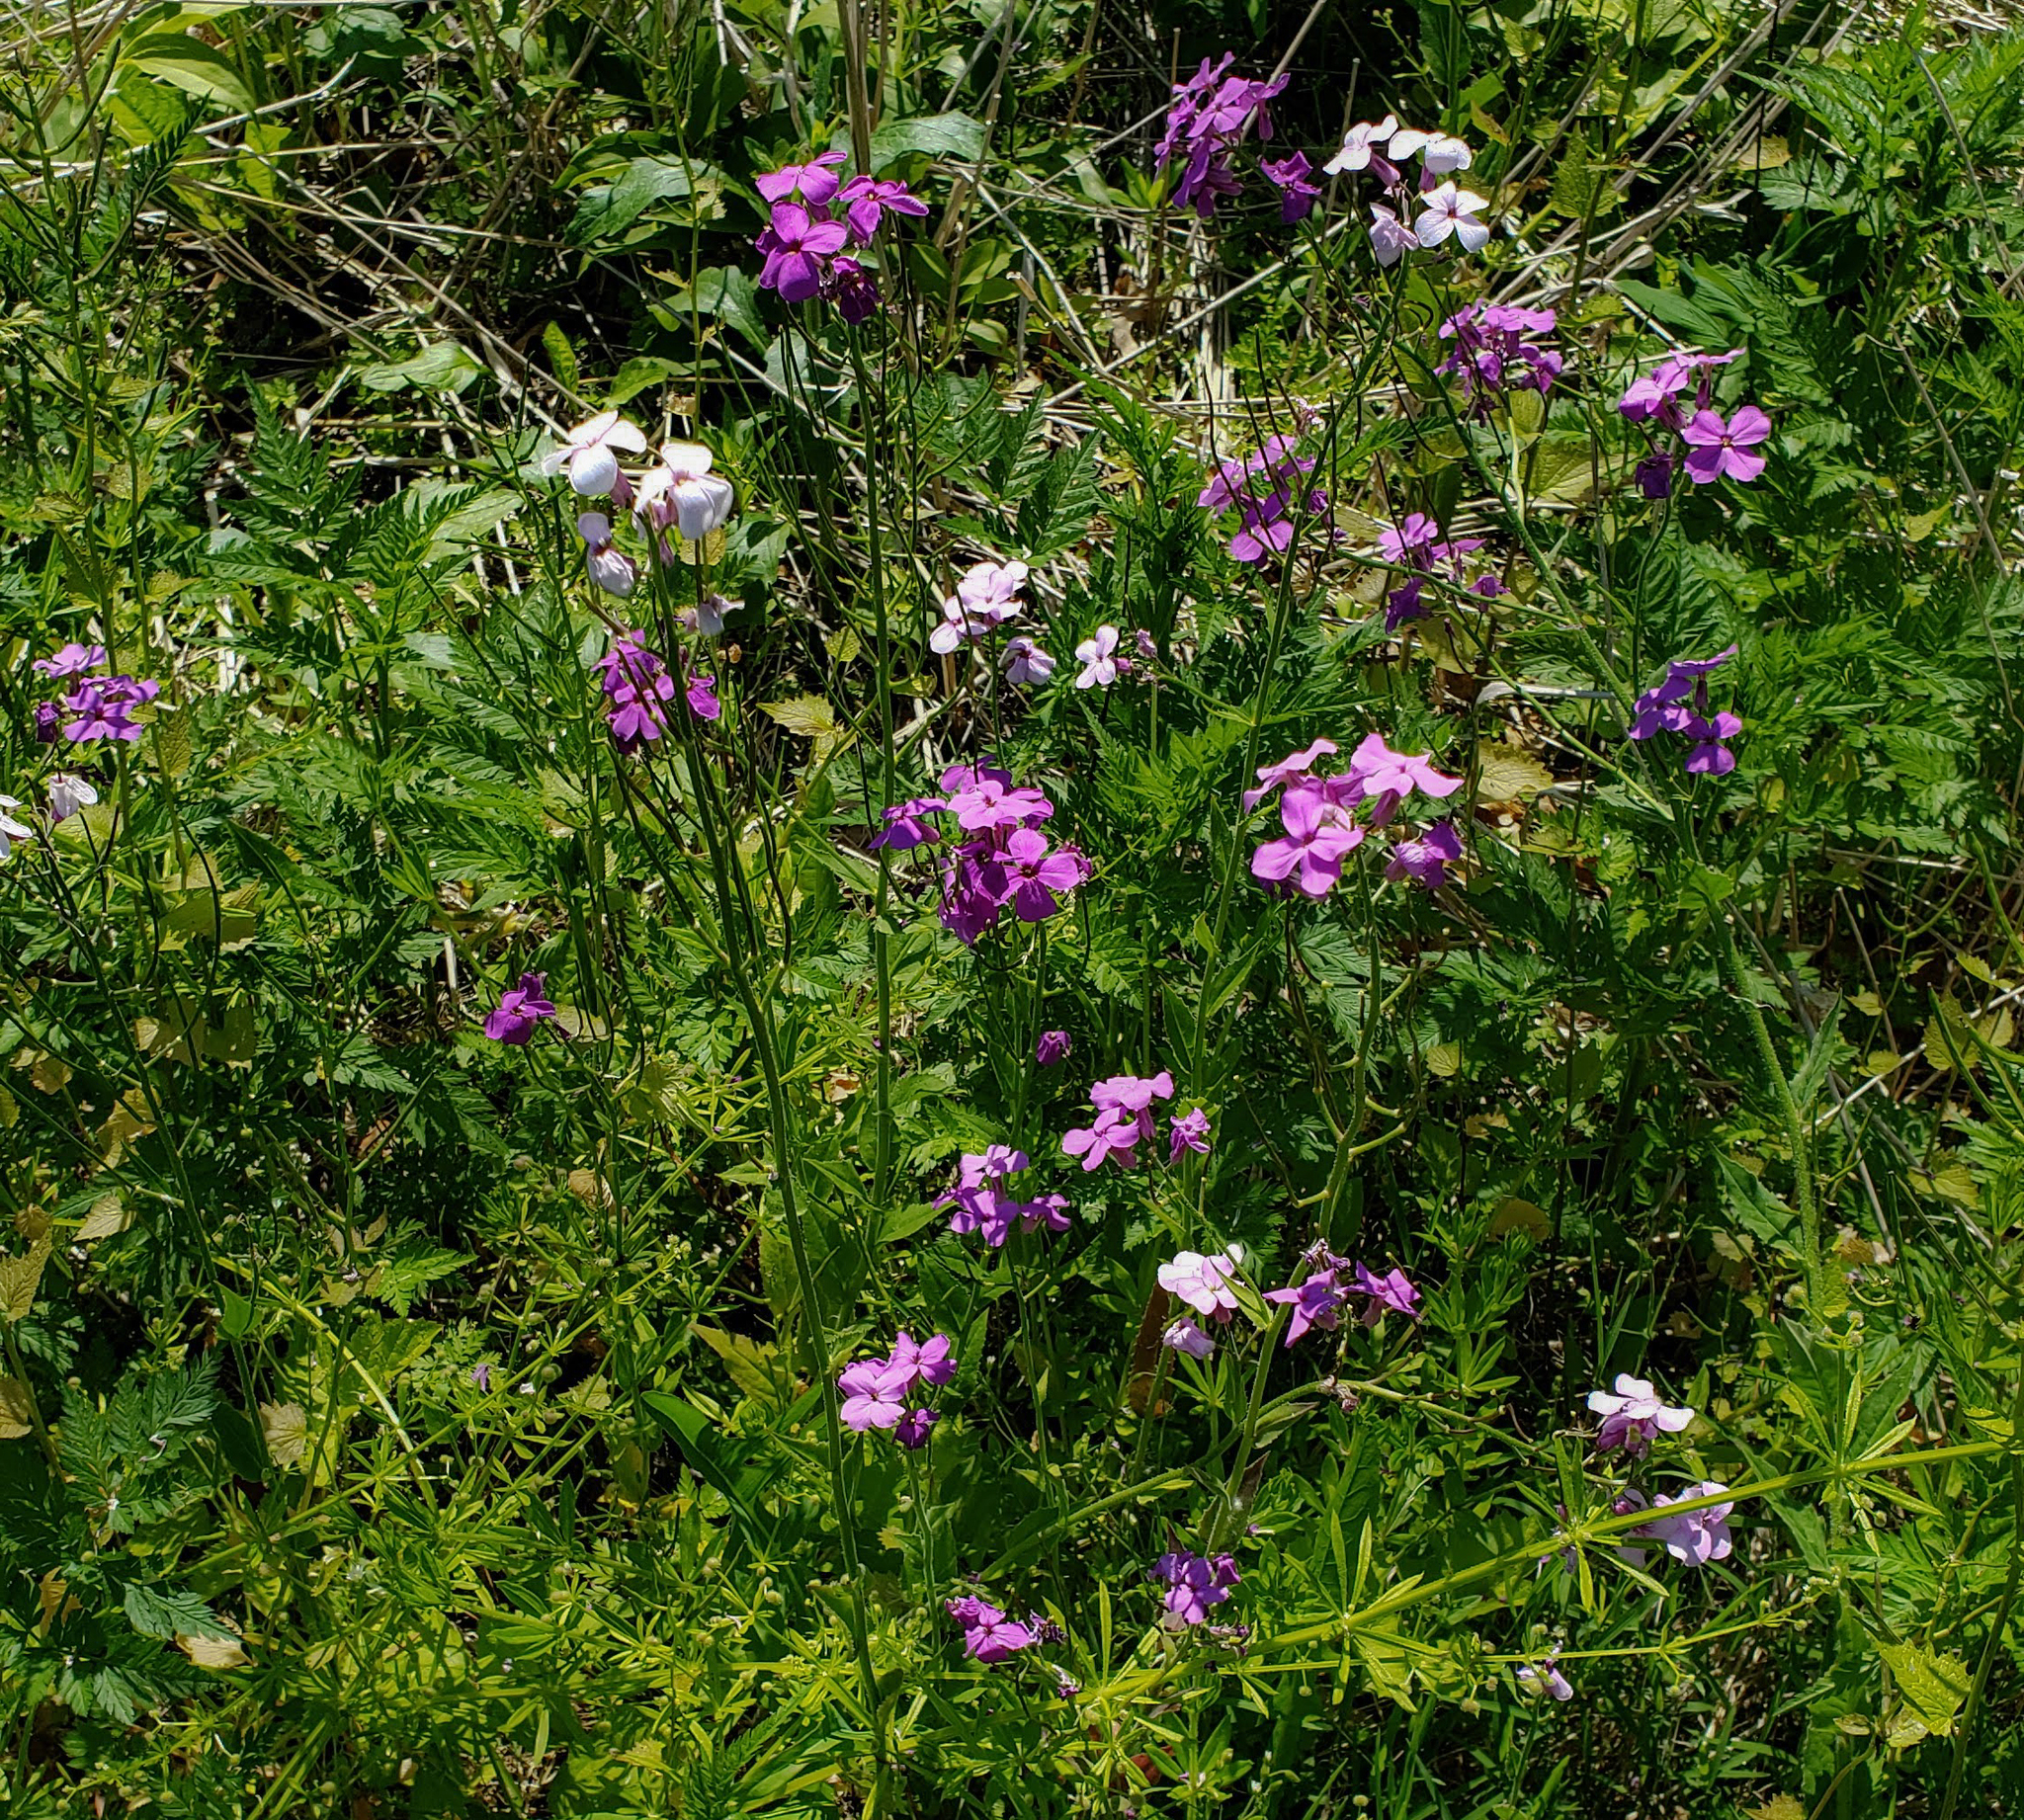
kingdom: Plantae
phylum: Tracheophyta
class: Magnoliopsida
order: Brassicales
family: Brassicaceae
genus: Hesperis
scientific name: Hesperis matronalis
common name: Dame's-violet
